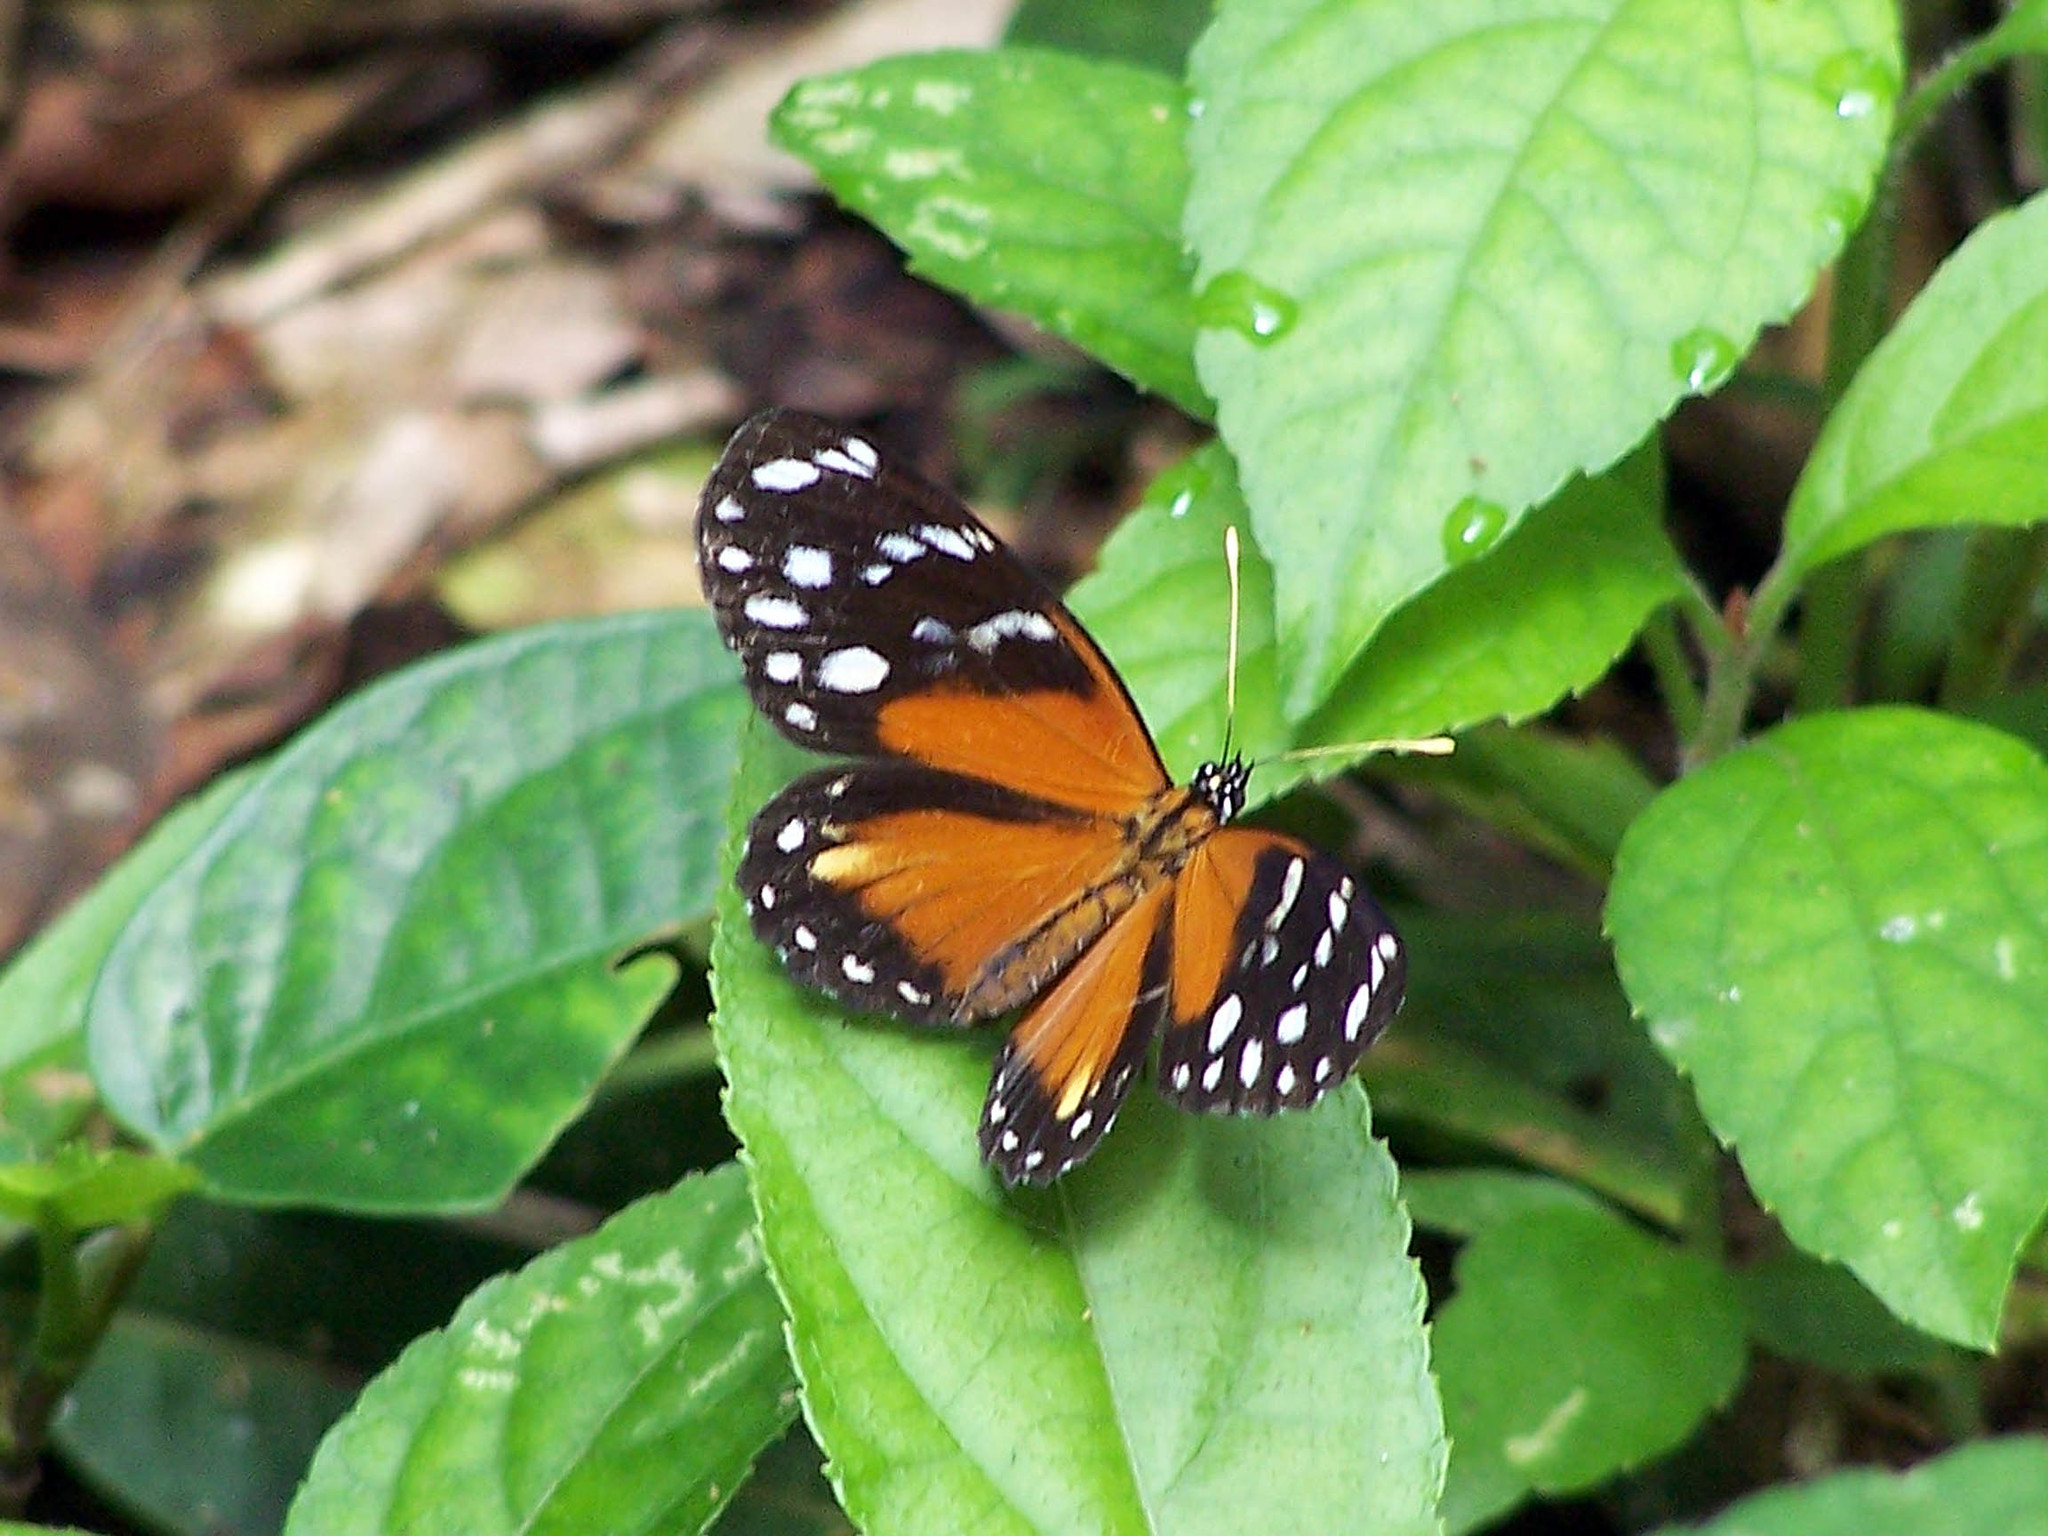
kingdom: Animalia
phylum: Arthropoda
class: Insecta
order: Lepidoptera
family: Nymphalidae
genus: Eresia
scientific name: Eresia ithomioides
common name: Variable crescent
